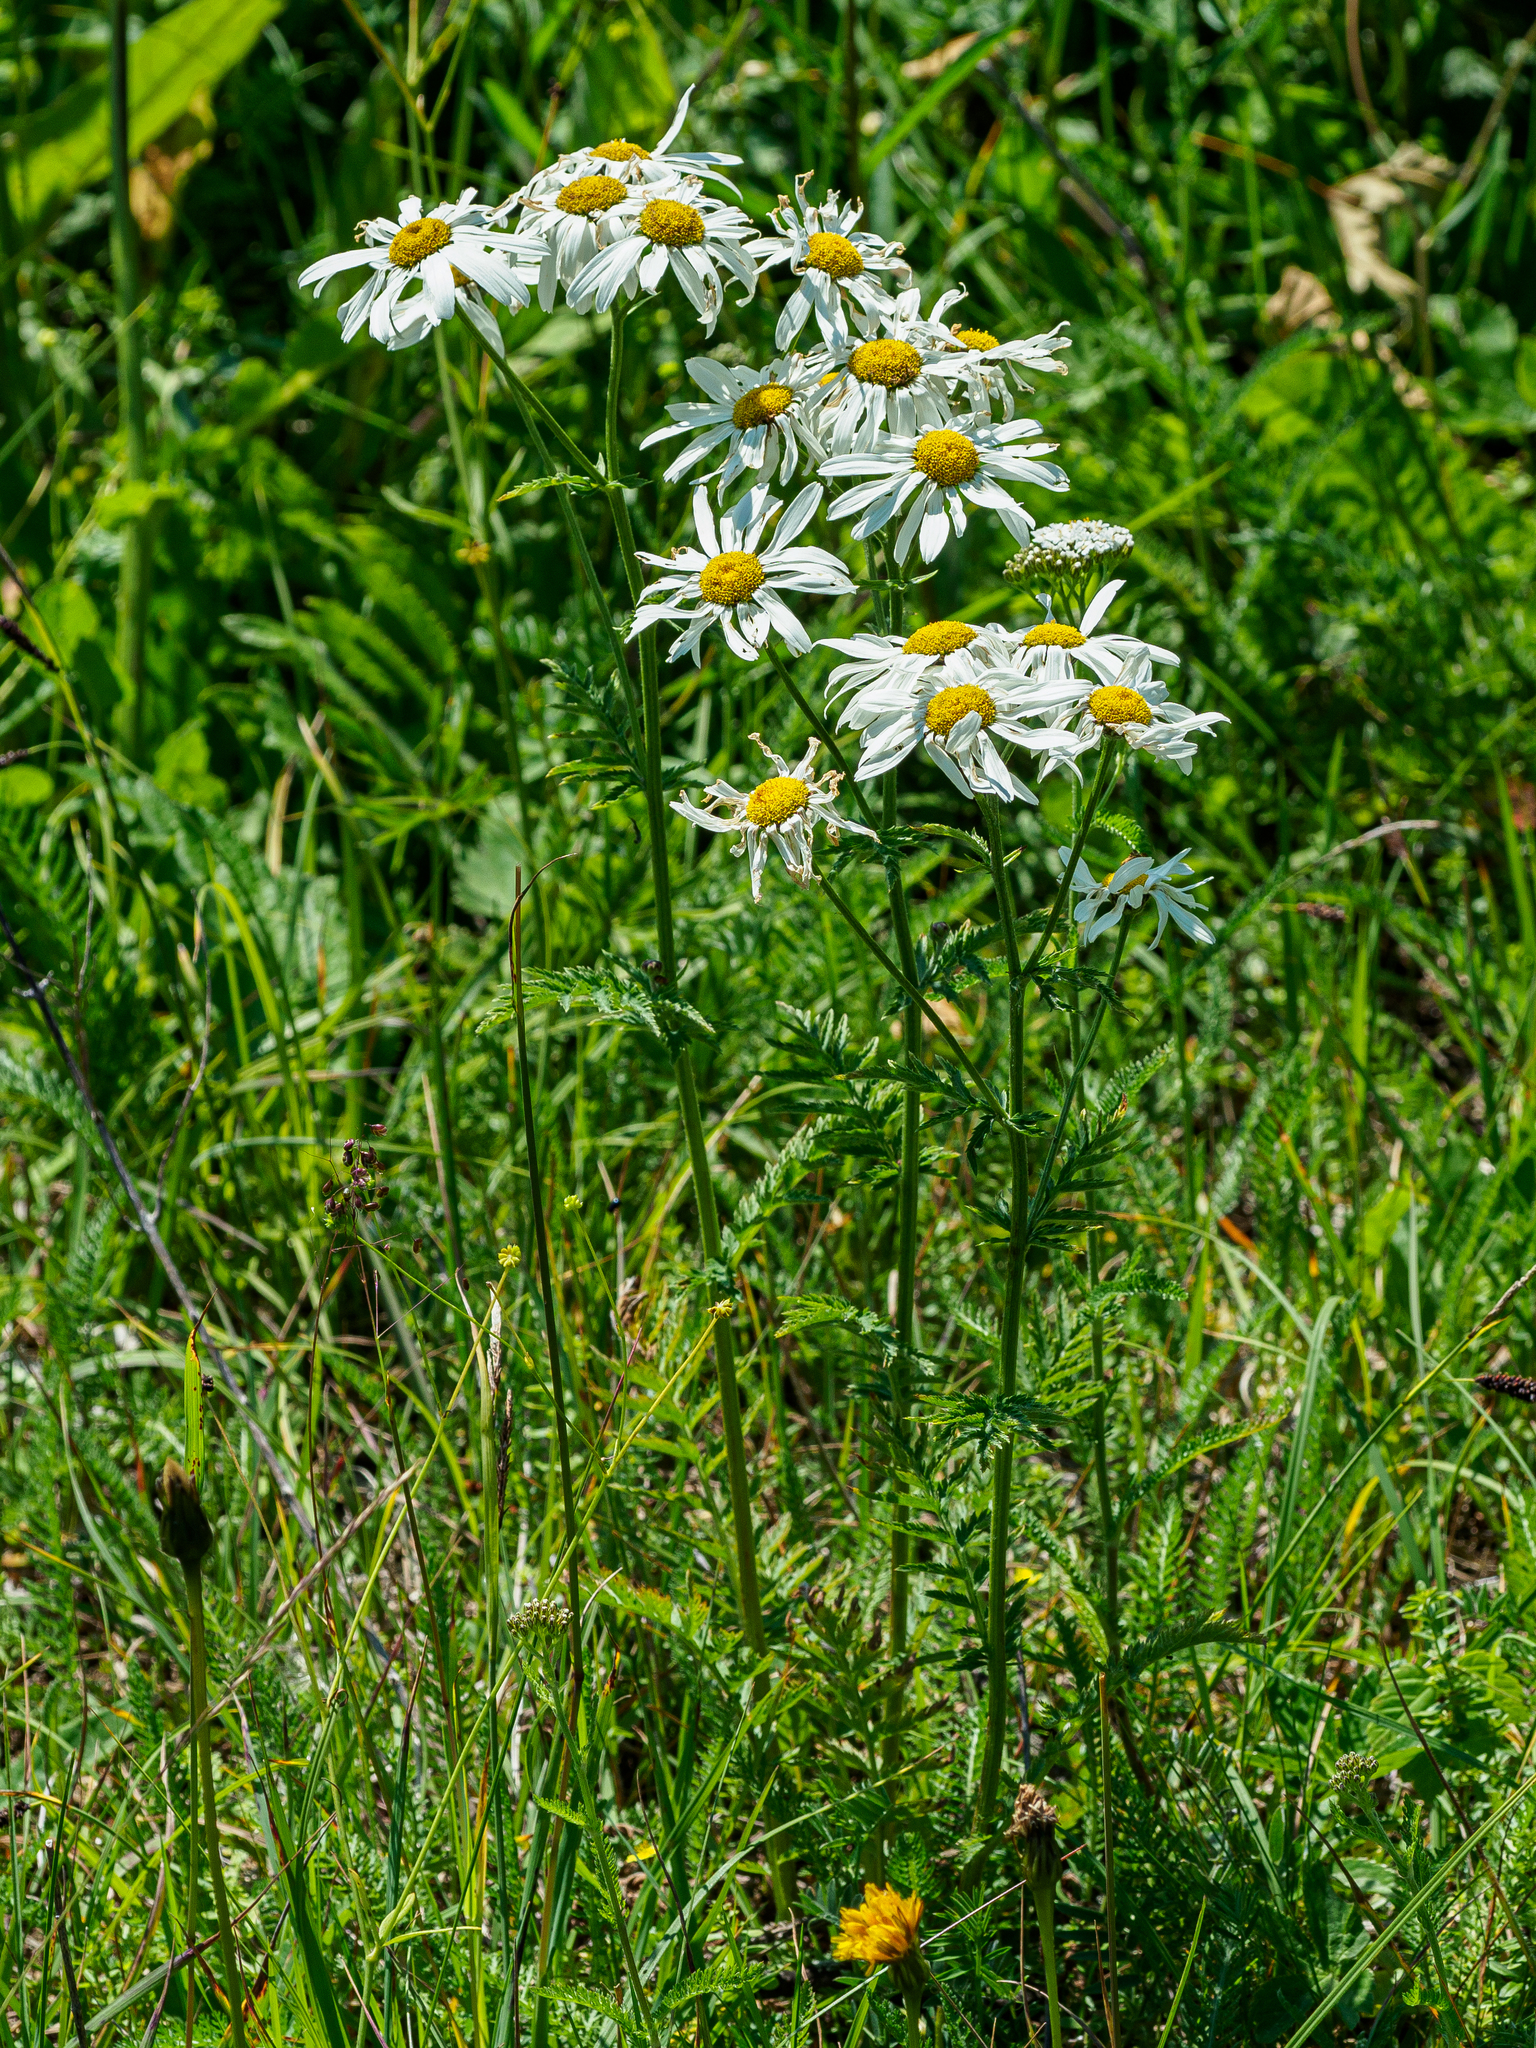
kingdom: Plantae
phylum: Tracheophyta
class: Magnoliopsida
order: Asterales
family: Asteraceae
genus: Tanacetum
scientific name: Tanacetum corymbosum
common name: Scentless feverfew
